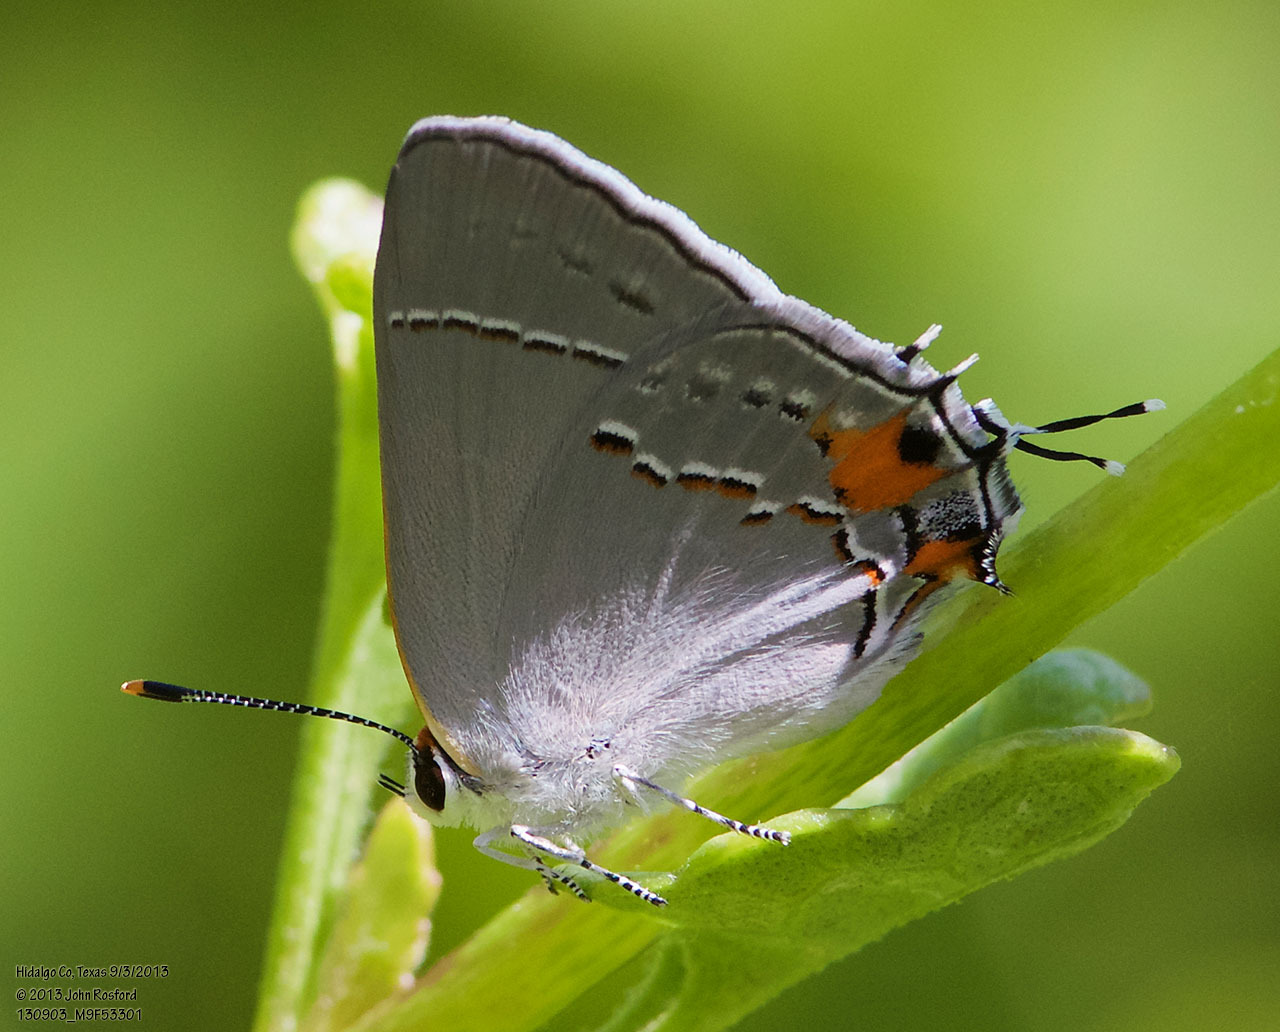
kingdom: Animalia
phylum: Arthropoda
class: Insecta
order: Lepidoptera
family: Lycaenidae
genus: Strymon
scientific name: Strymon melinus
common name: Gray hairstreak
